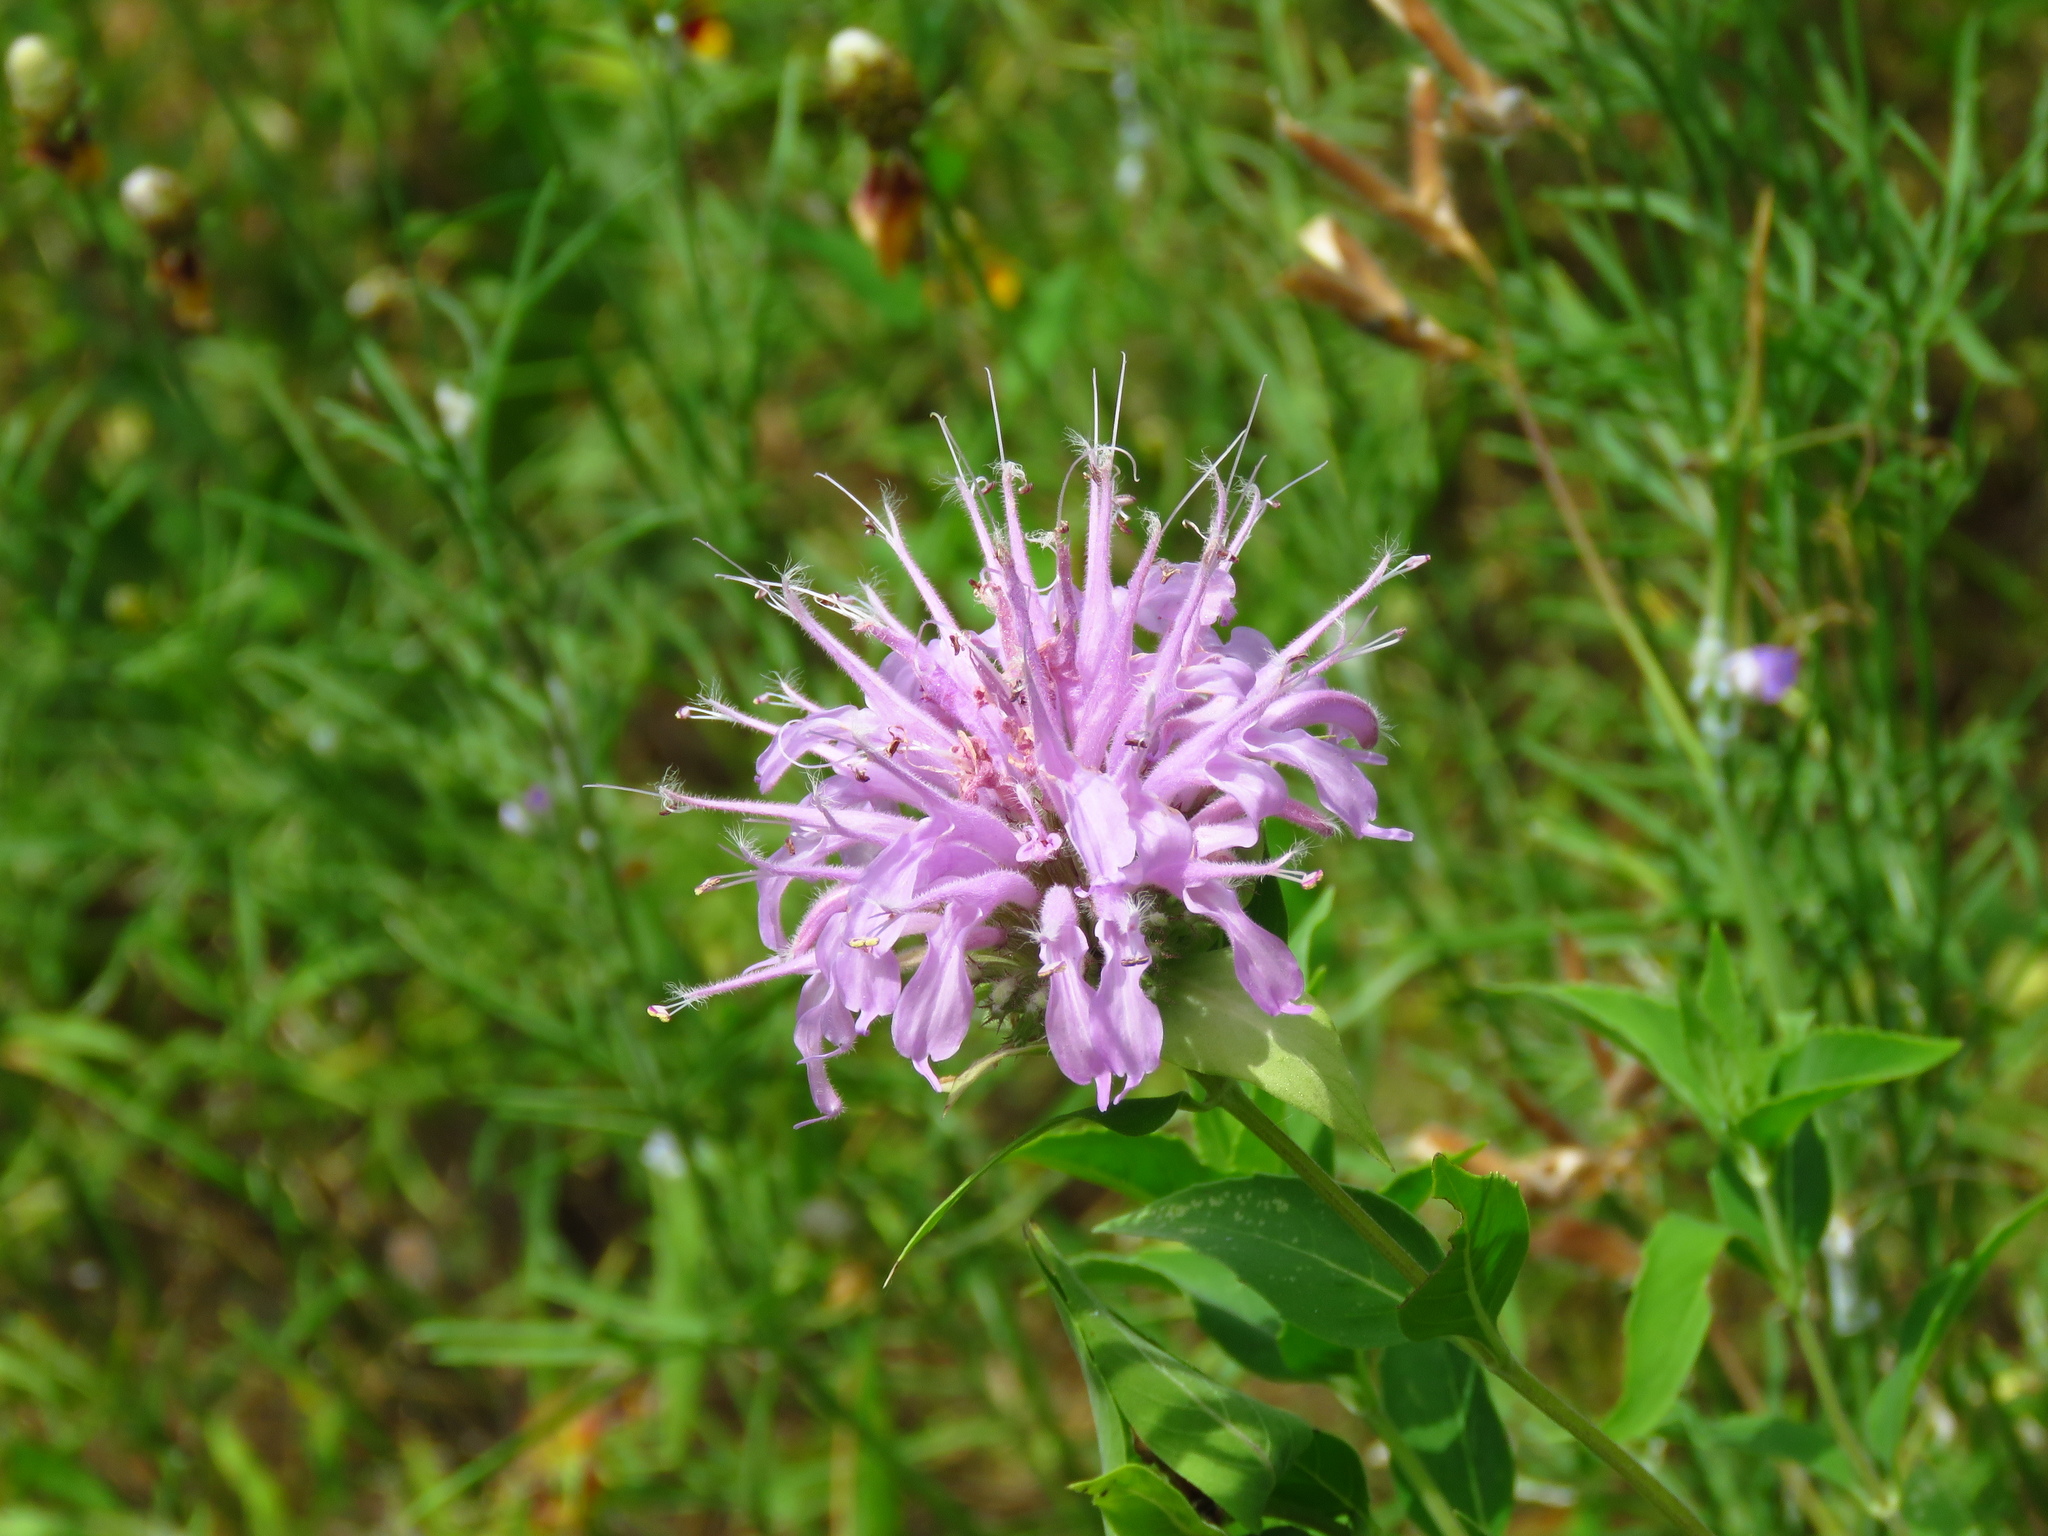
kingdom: Plantae
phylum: Tracheophyta
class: Magnoliopsida
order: Lamiales
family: Lamiaceae
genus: Monarda
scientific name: Monarda fistulosa
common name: Purple beebalm
